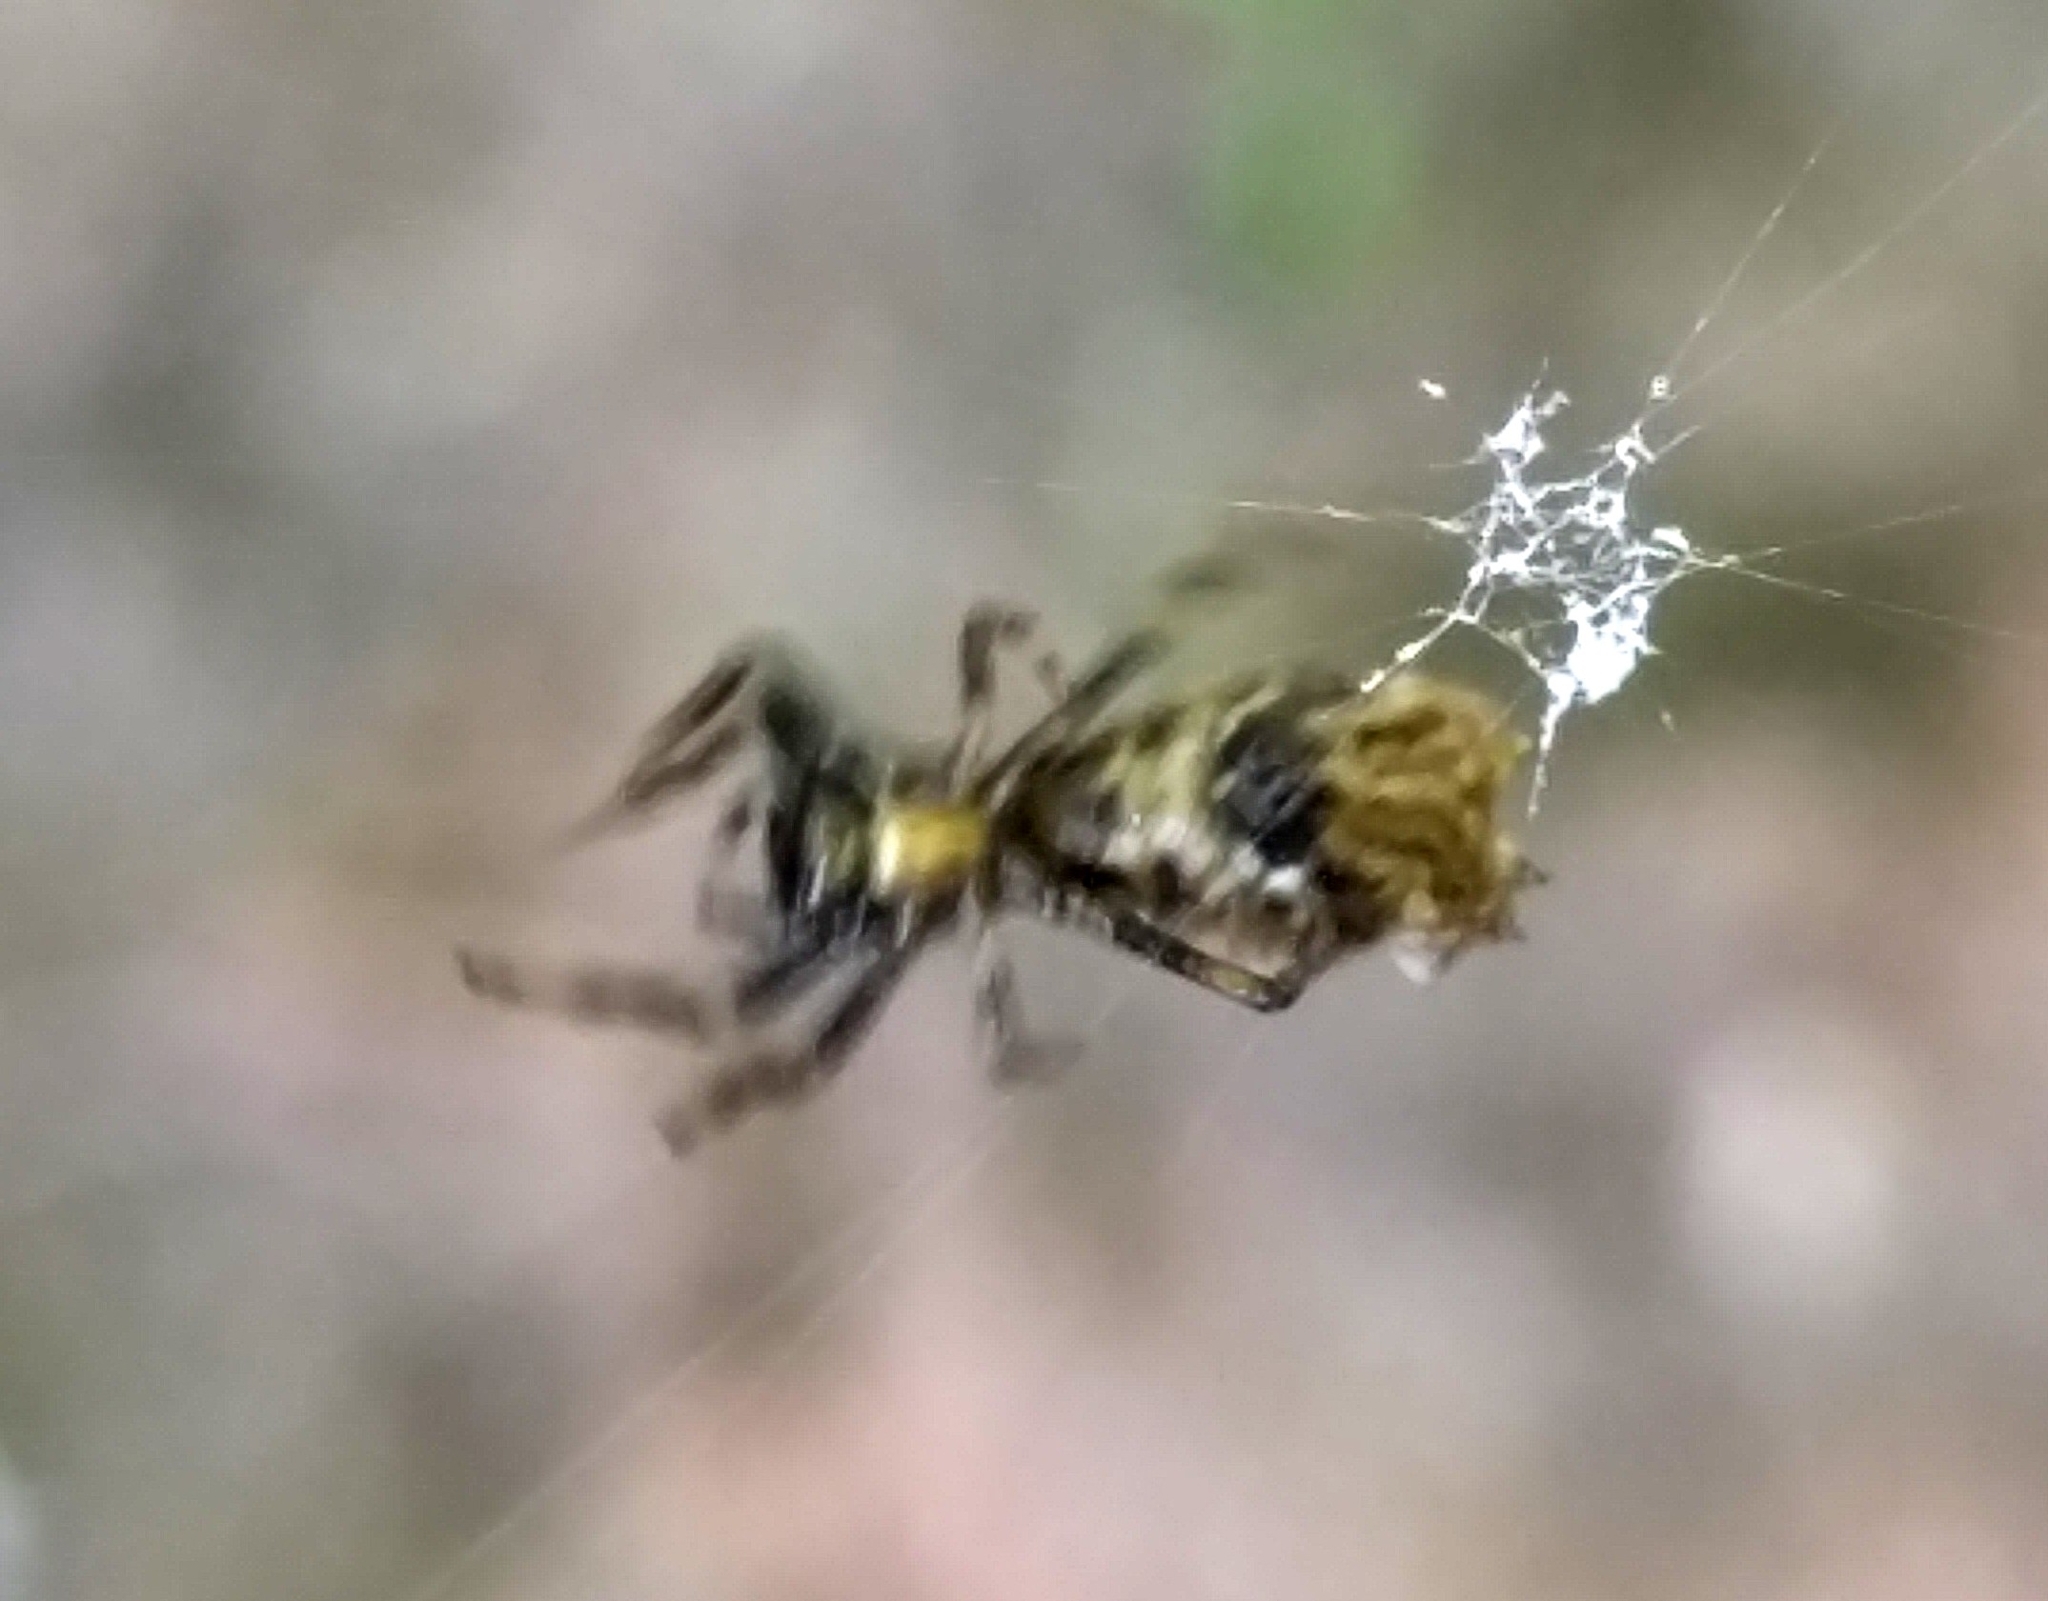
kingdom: Animalia
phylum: Arthropoda
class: Arachnida
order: Araneae
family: Araneidae
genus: Micrathena
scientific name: Micrathena gracilis
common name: Orb weavers
